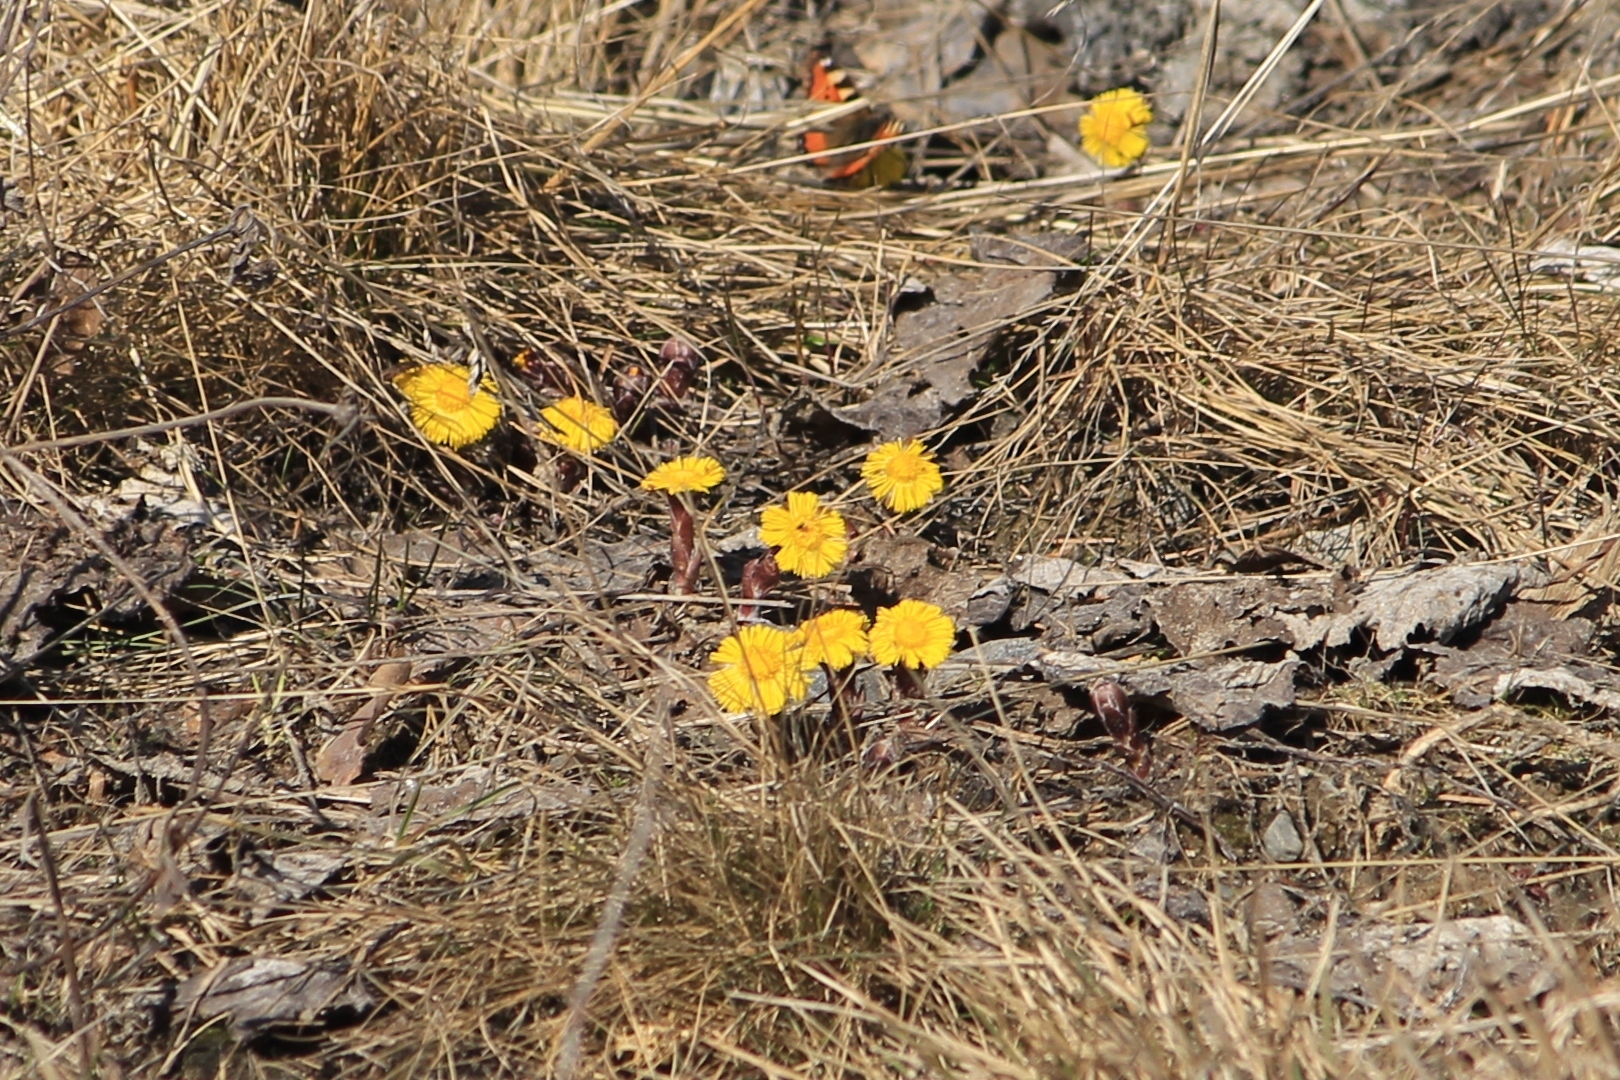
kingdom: Plantae
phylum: Tracheophyta
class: Magnoliopsida
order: Asterales
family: Asteraceae
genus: Tussilago
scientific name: Tussilago farfara
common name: Coltsfoot
